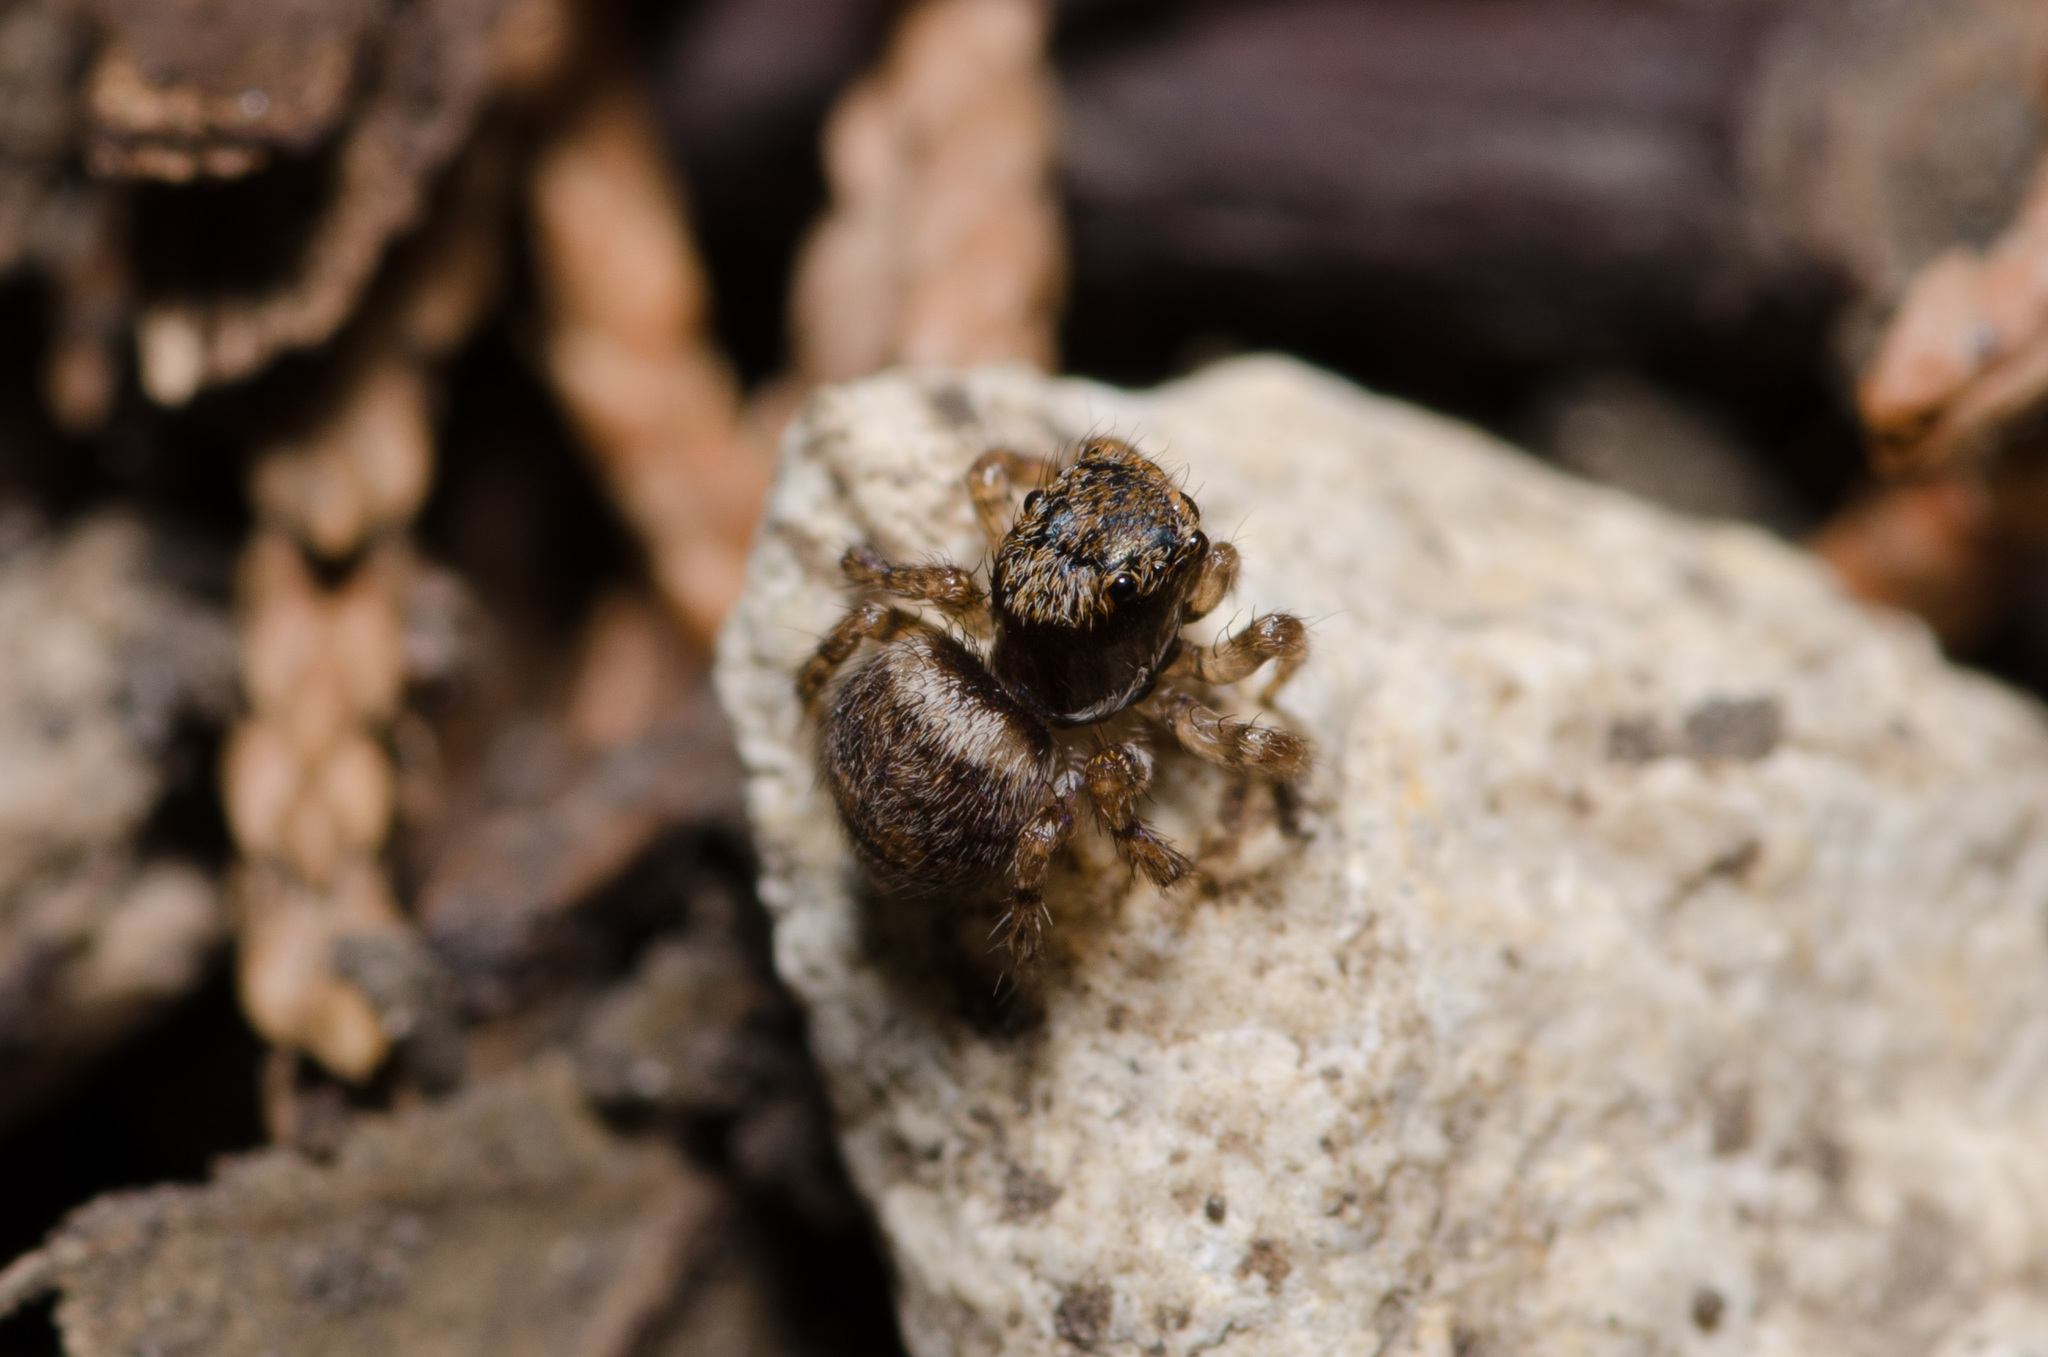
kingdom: Animalia
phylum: Arthropoda
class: Arachnida
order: Araneae
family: Salticidae
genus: Naphrys
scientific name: Naphrys acerba
